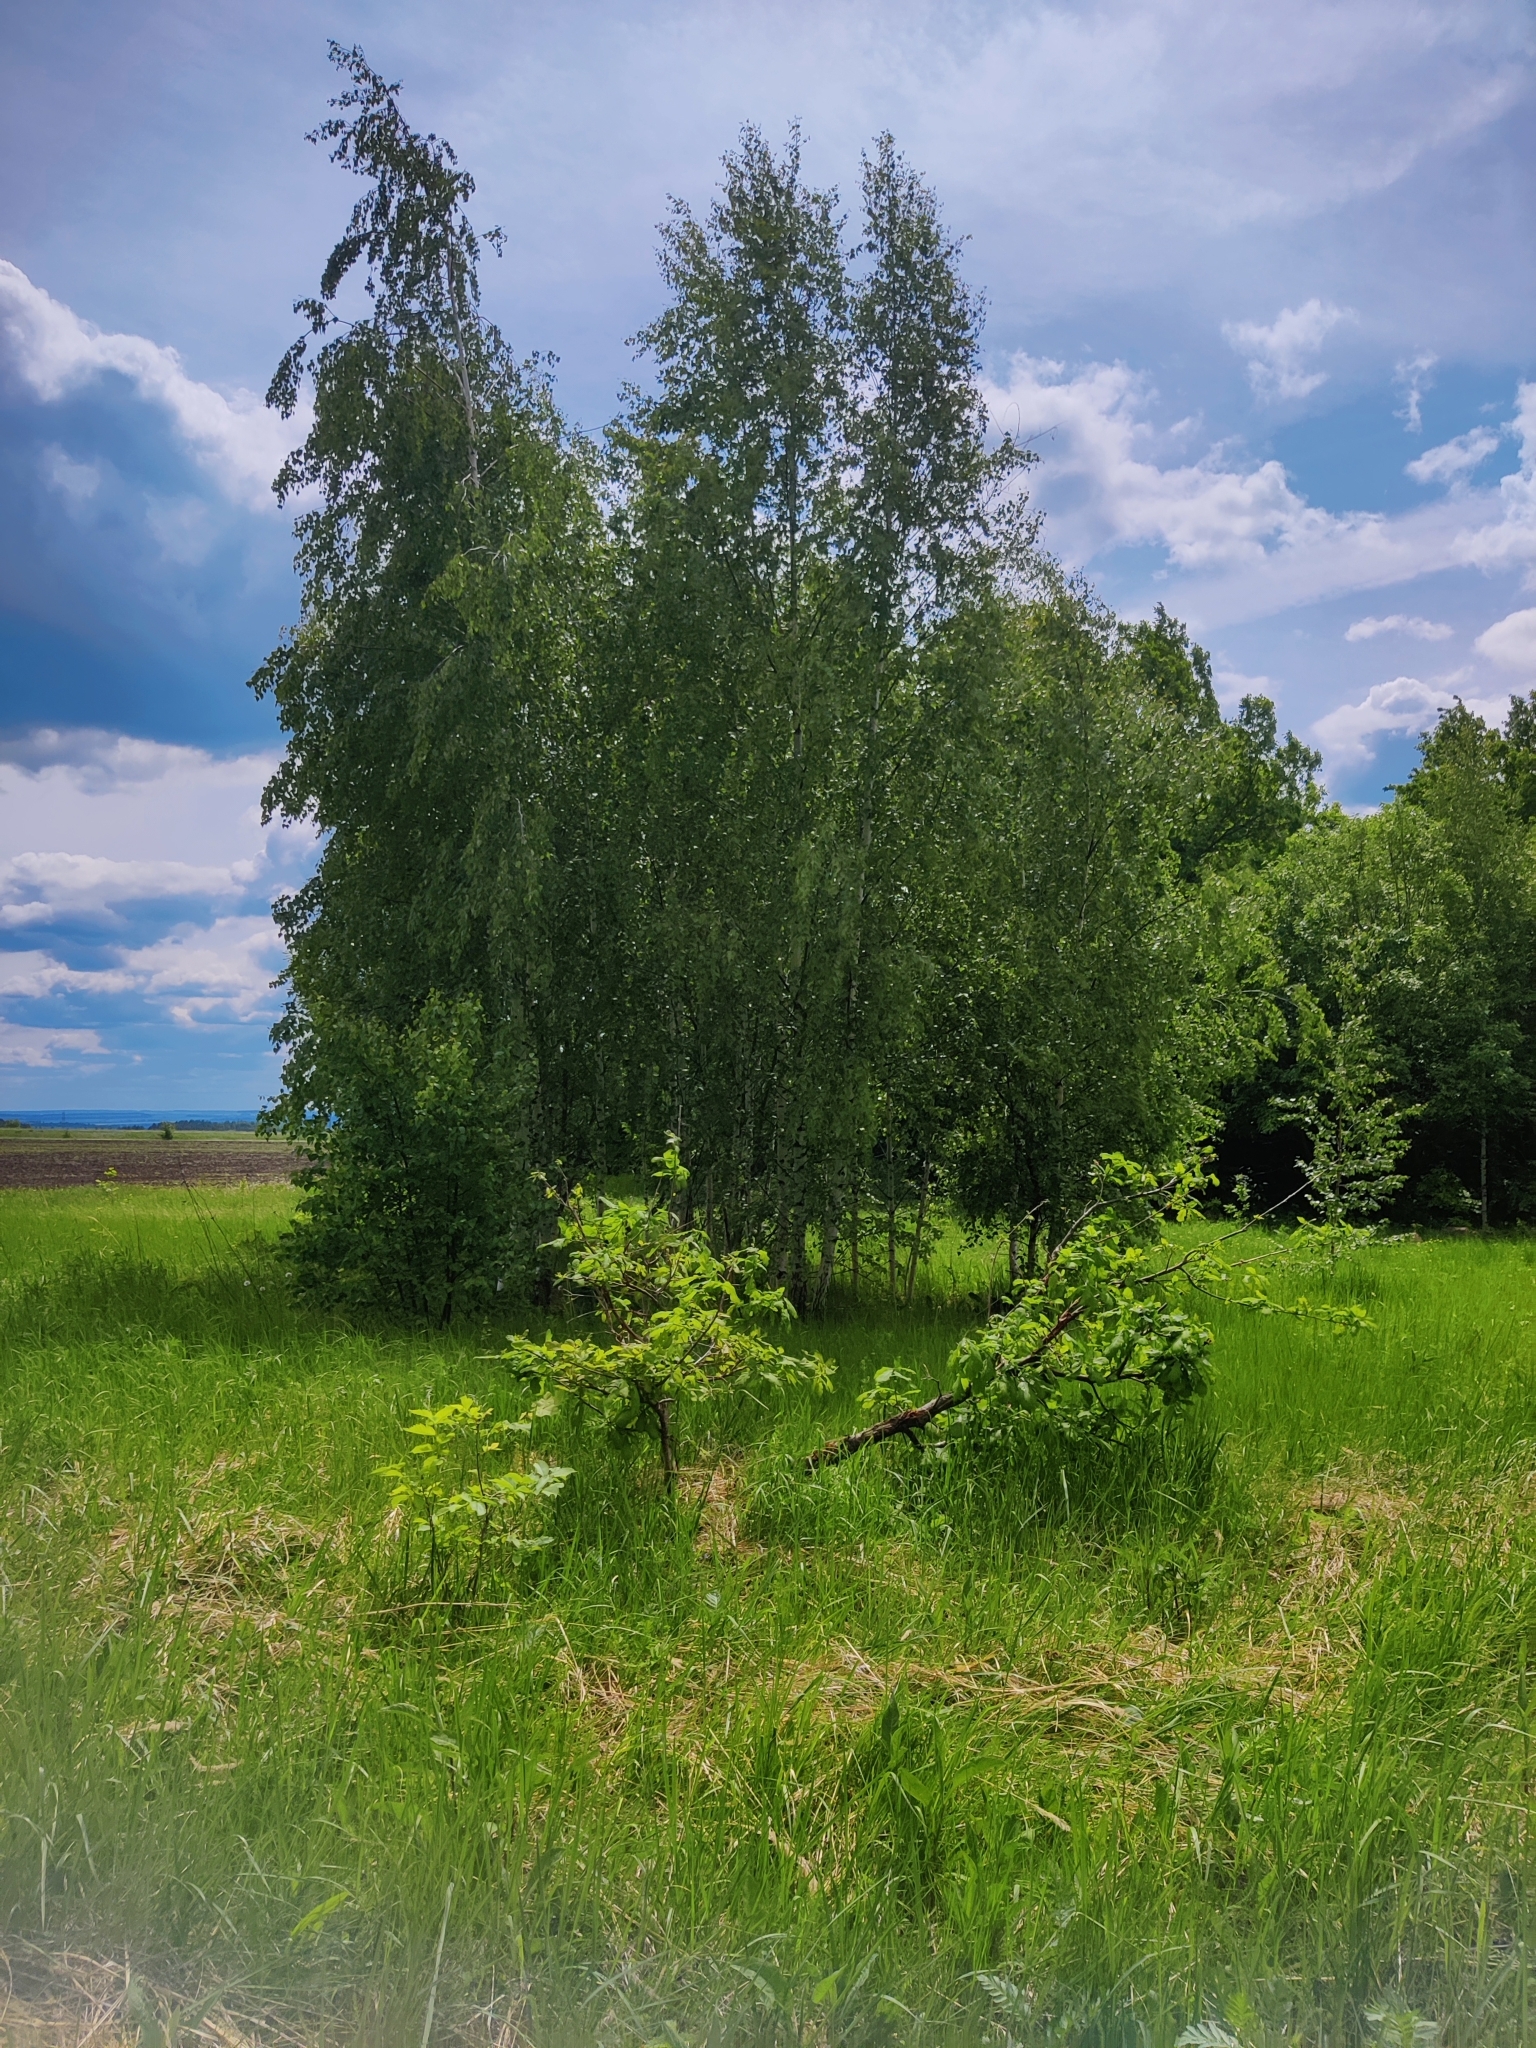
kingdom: Plantae
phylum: Tracheophyta
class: Magnoliopsida
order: Fagales
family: Betulaceae
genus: Betula
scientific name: Betula pendula
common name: Silver birch
